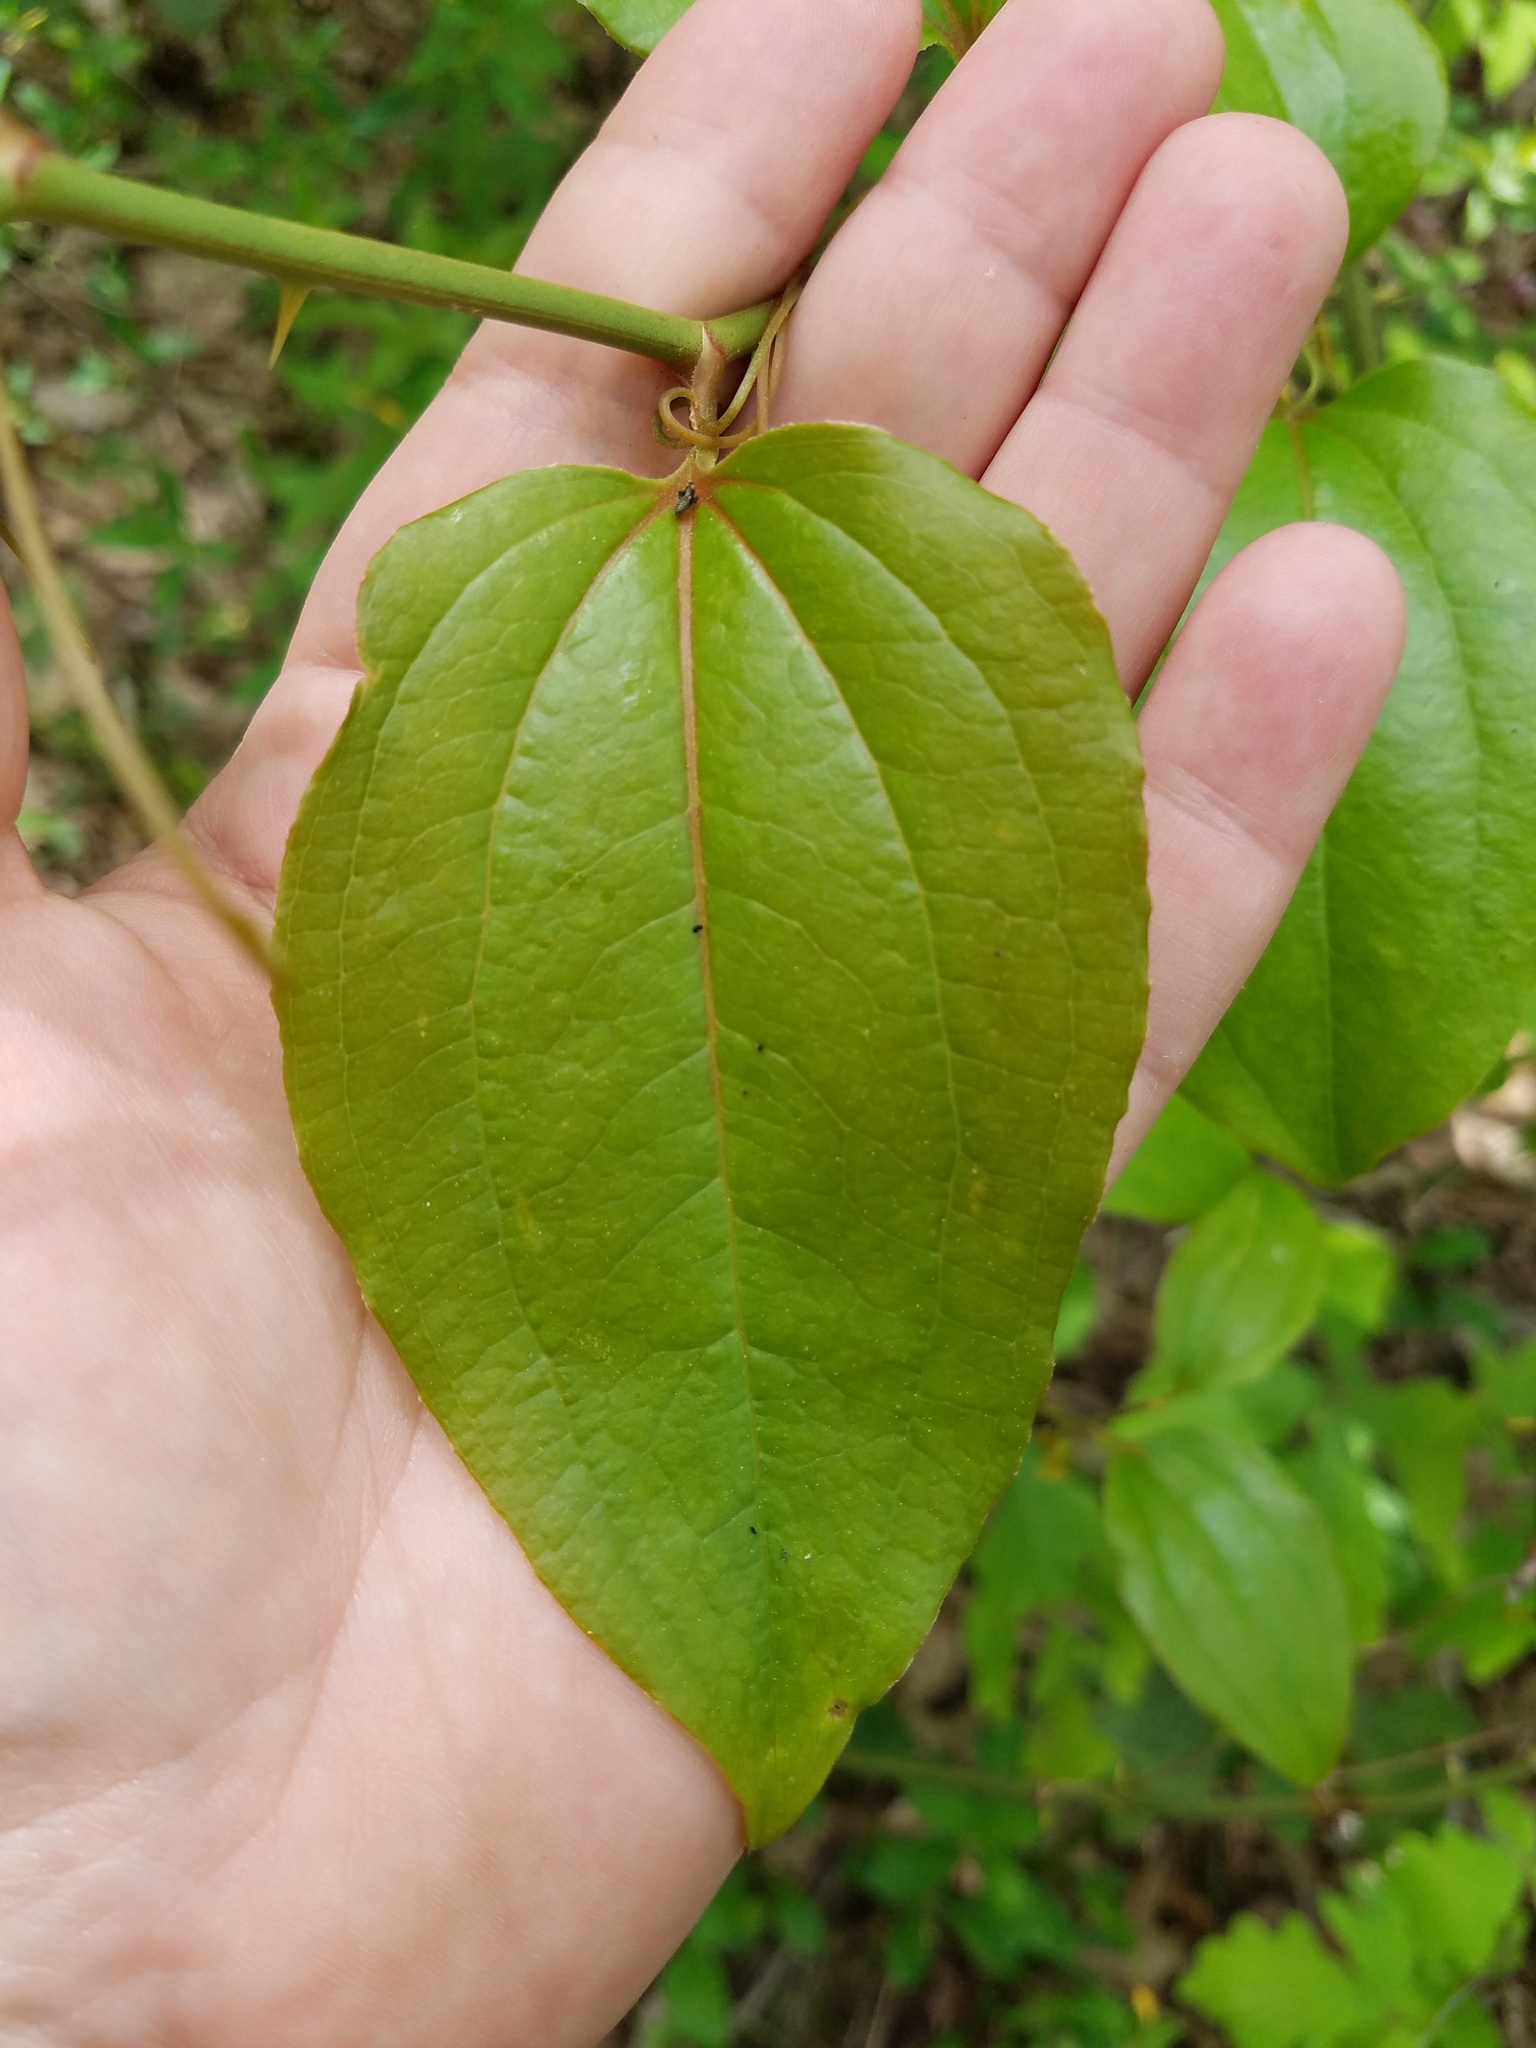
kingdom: Plantae
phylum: Tracheophyta
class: Liliopsida
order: Liliales
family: Smilacaceae
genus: Smilax
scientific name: Smilax rotundifolia
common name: Bullbriar
